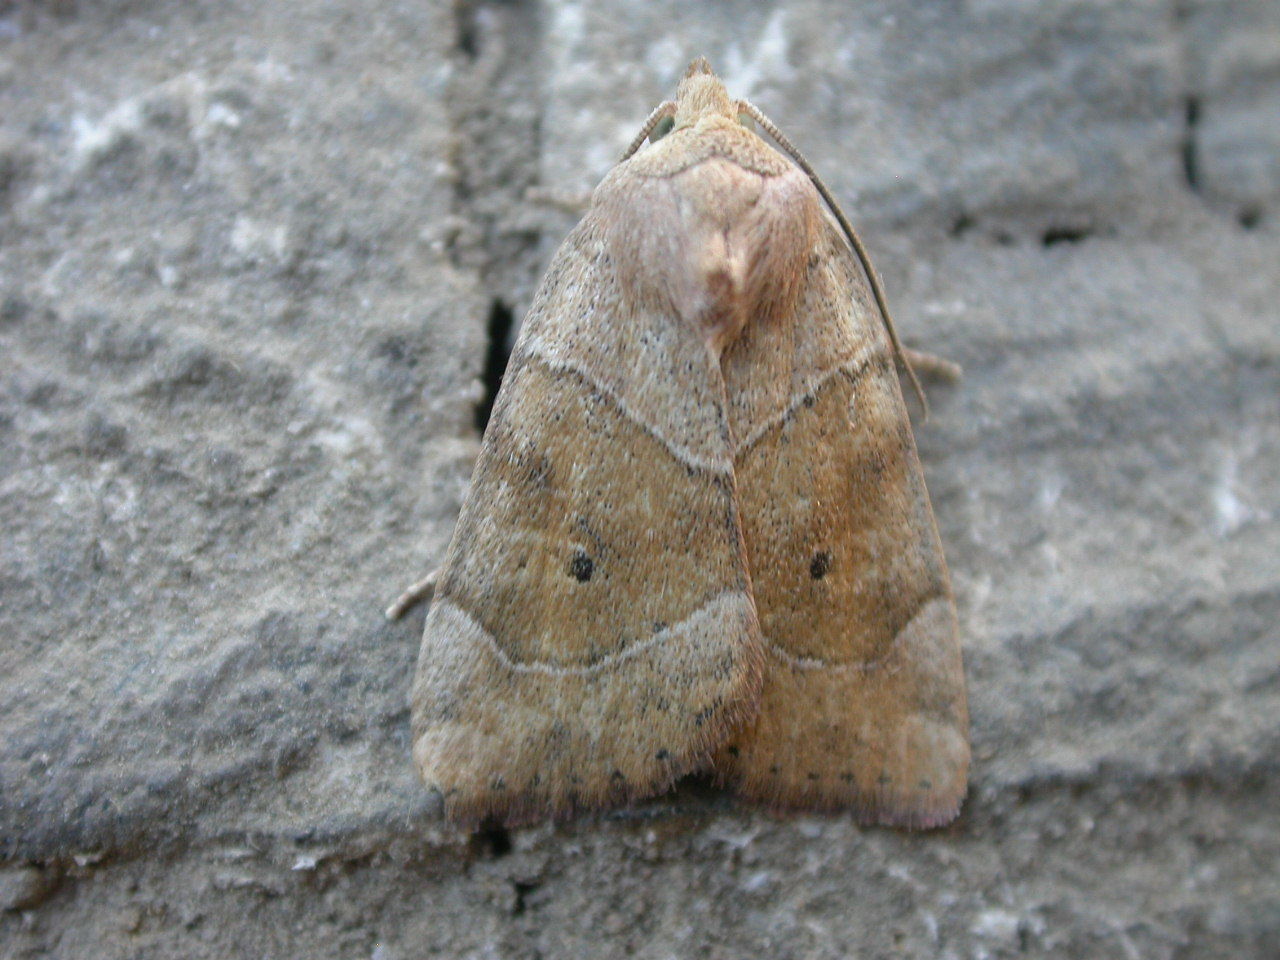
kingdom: Animalia
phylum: Arthropoda
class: Insecta
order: Lepidoptera
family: Noctuidae
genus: Cosmia
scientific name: Cosmia trapezina
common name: Dun-bar
